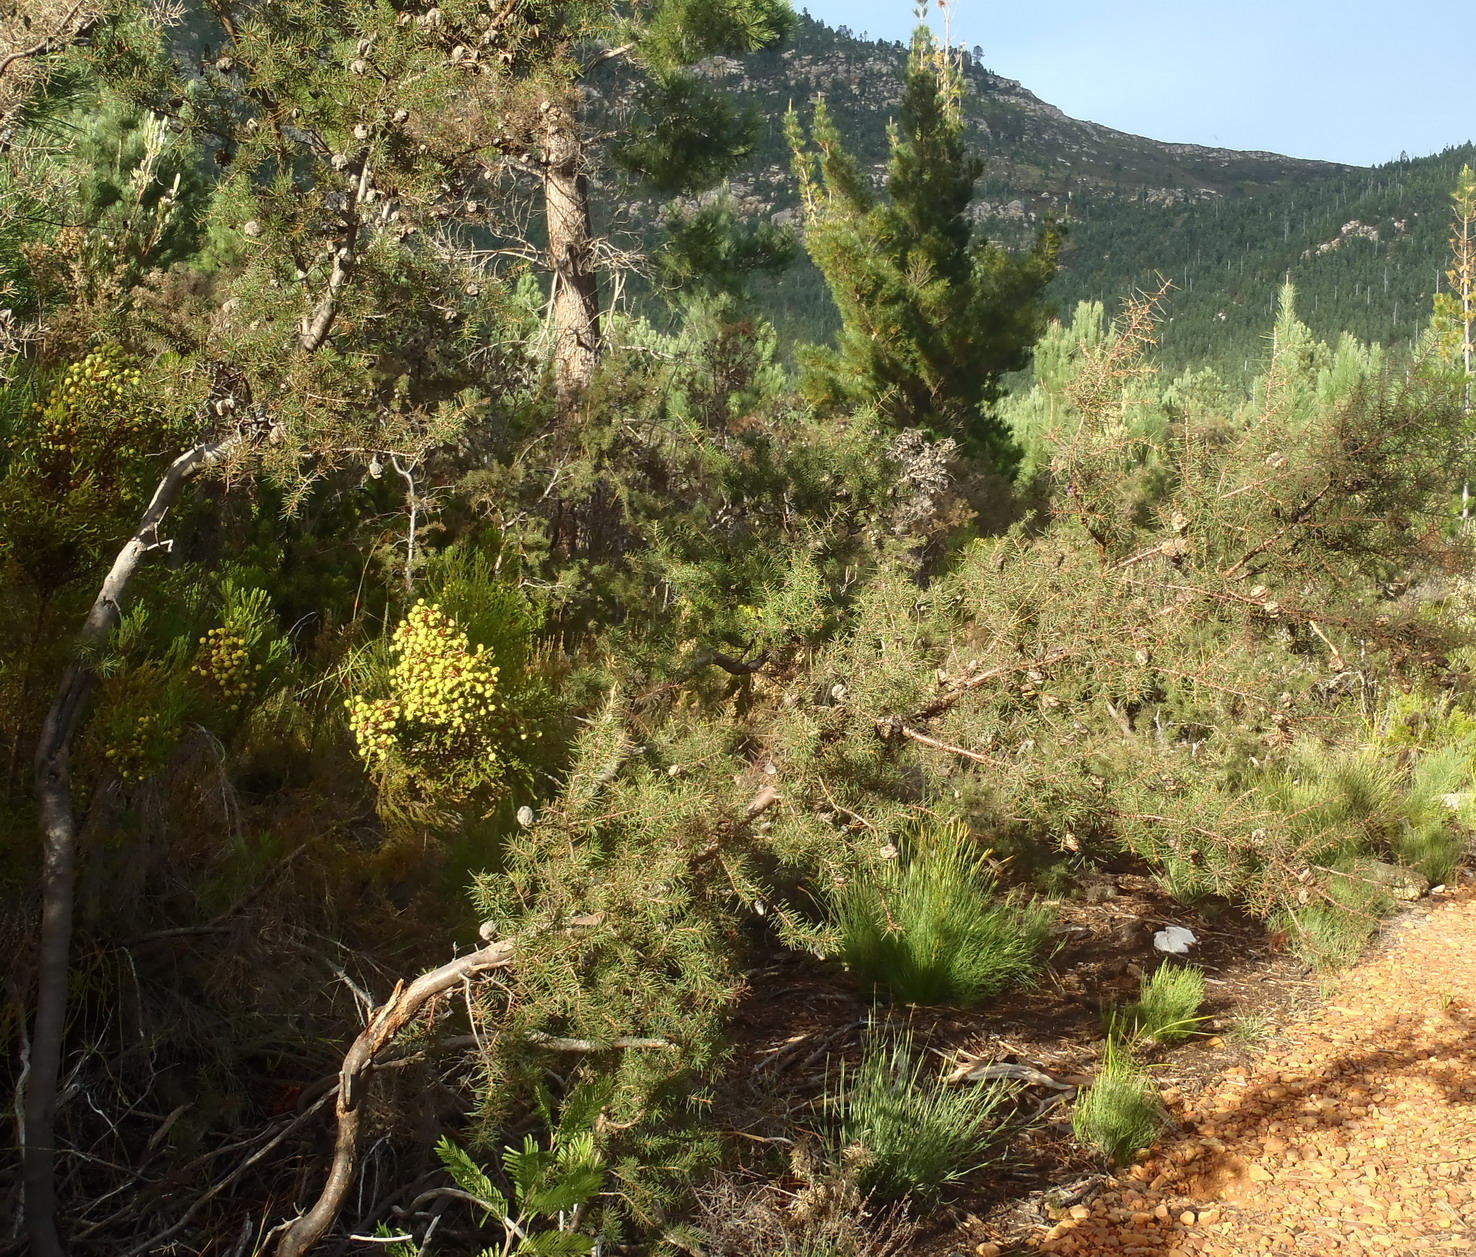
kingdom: Plantae
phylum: Tracheophyta
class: Magnoliopsida
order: Proteales
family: Proteaceae
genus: Hakea
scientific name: Hakea sericea
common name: Needle bush
